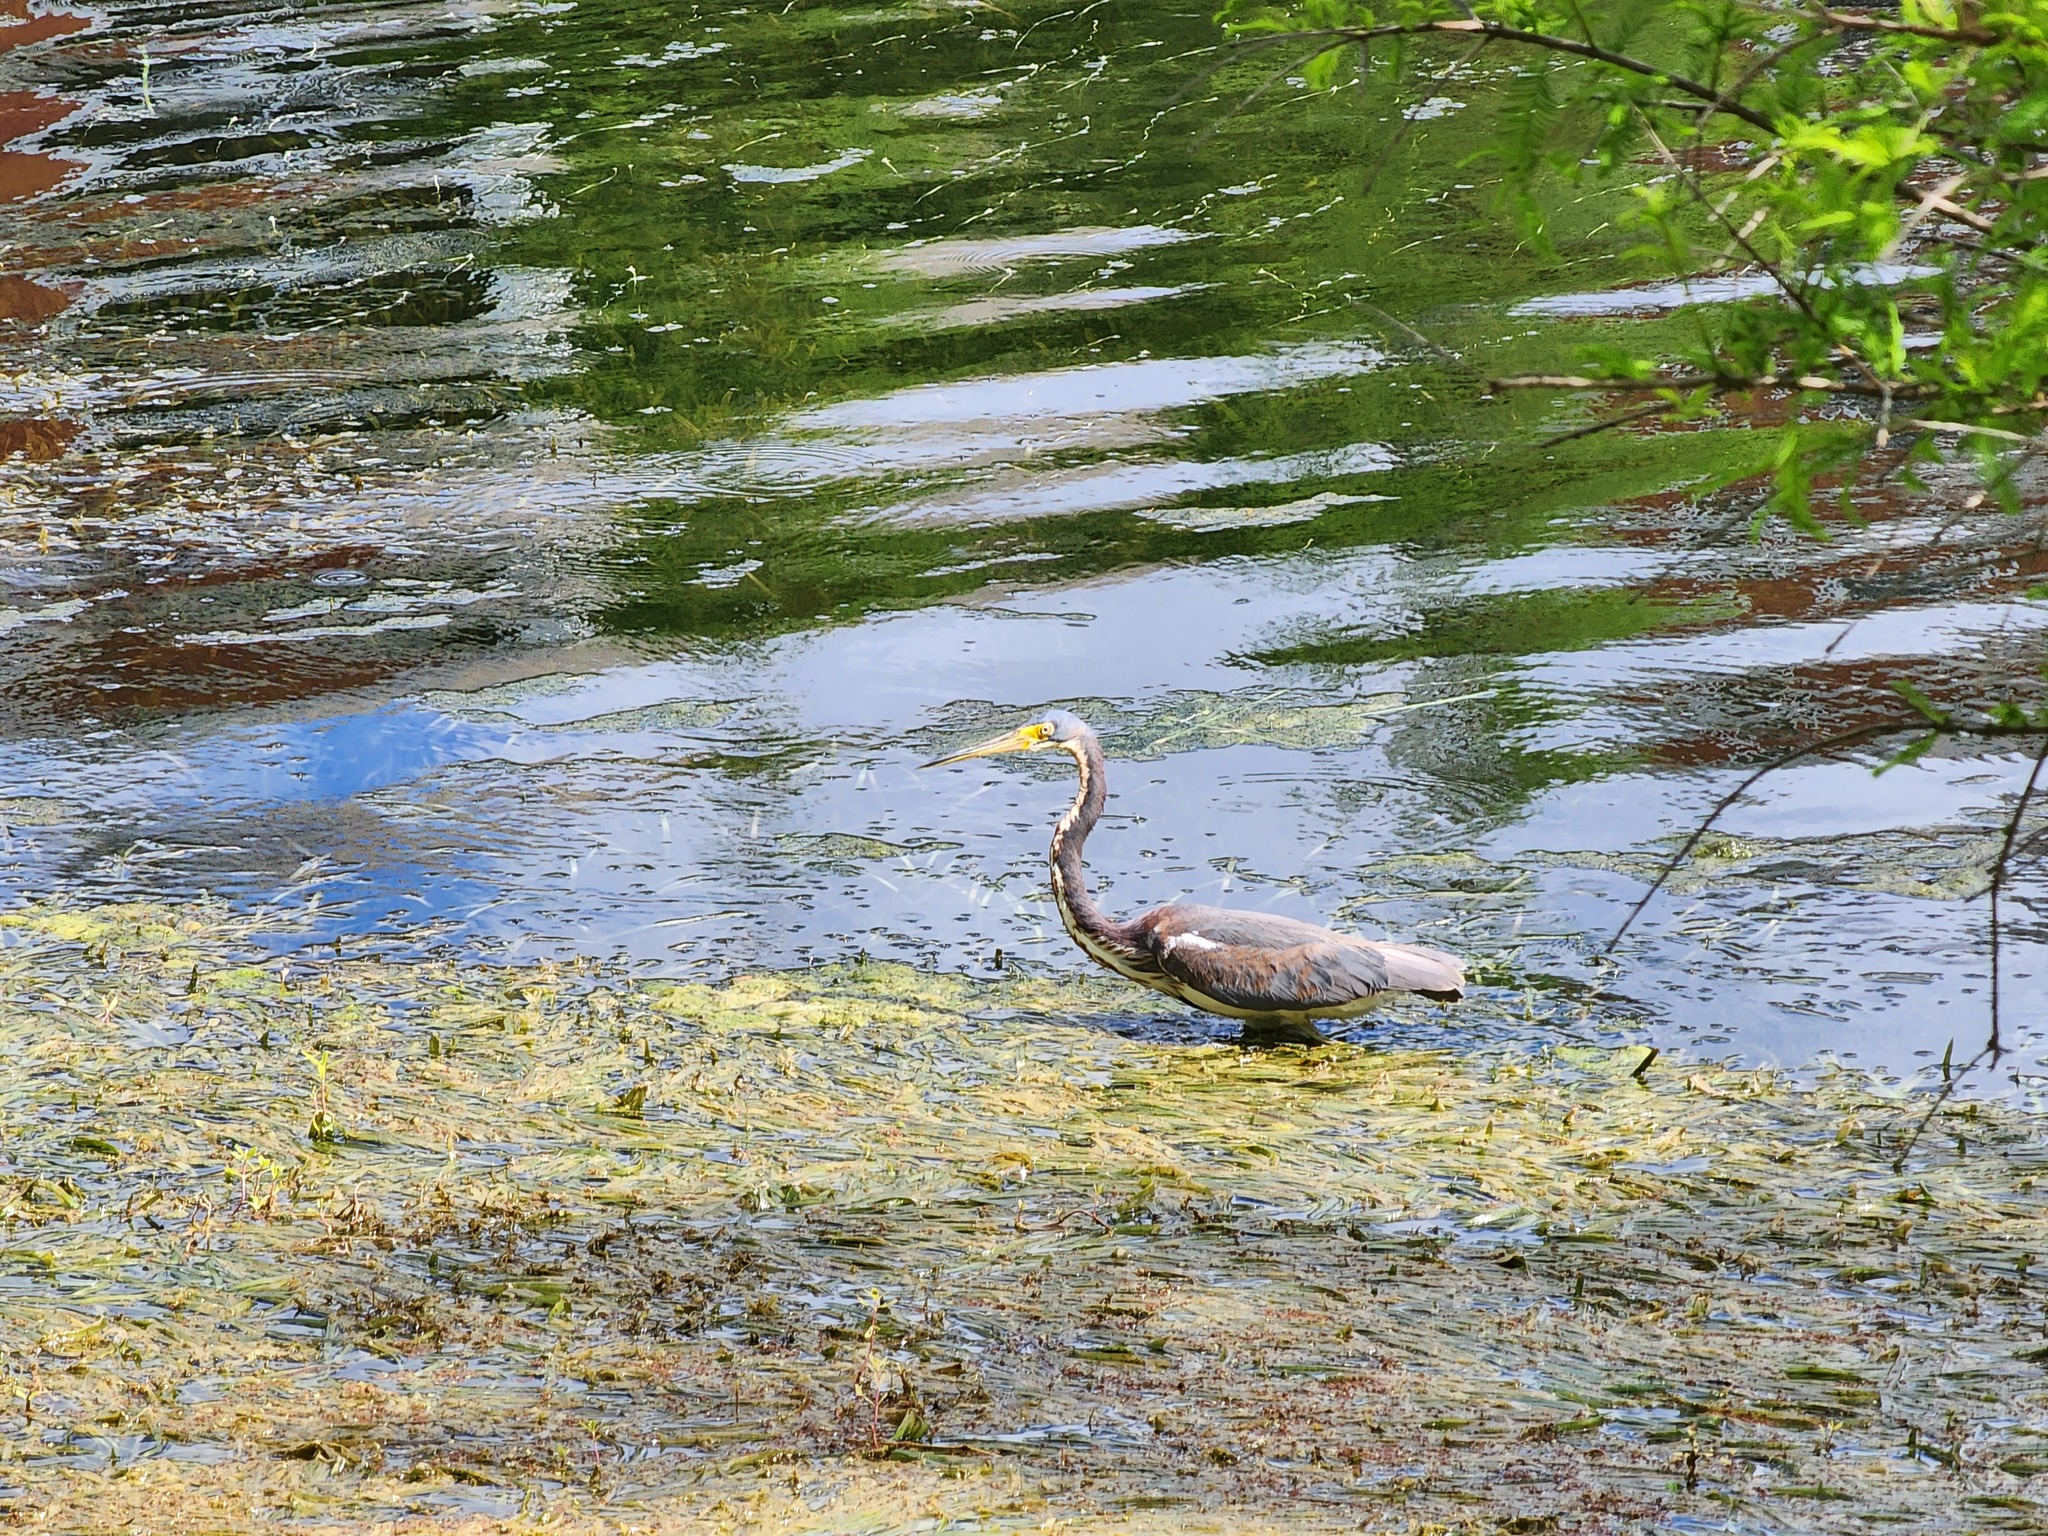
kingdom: Animalia
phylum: Chordata
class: Aves
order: Pelecaniformes
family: Ardeidae
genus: Egretta
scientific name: Egretta tricolor
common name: Tricolored heron
